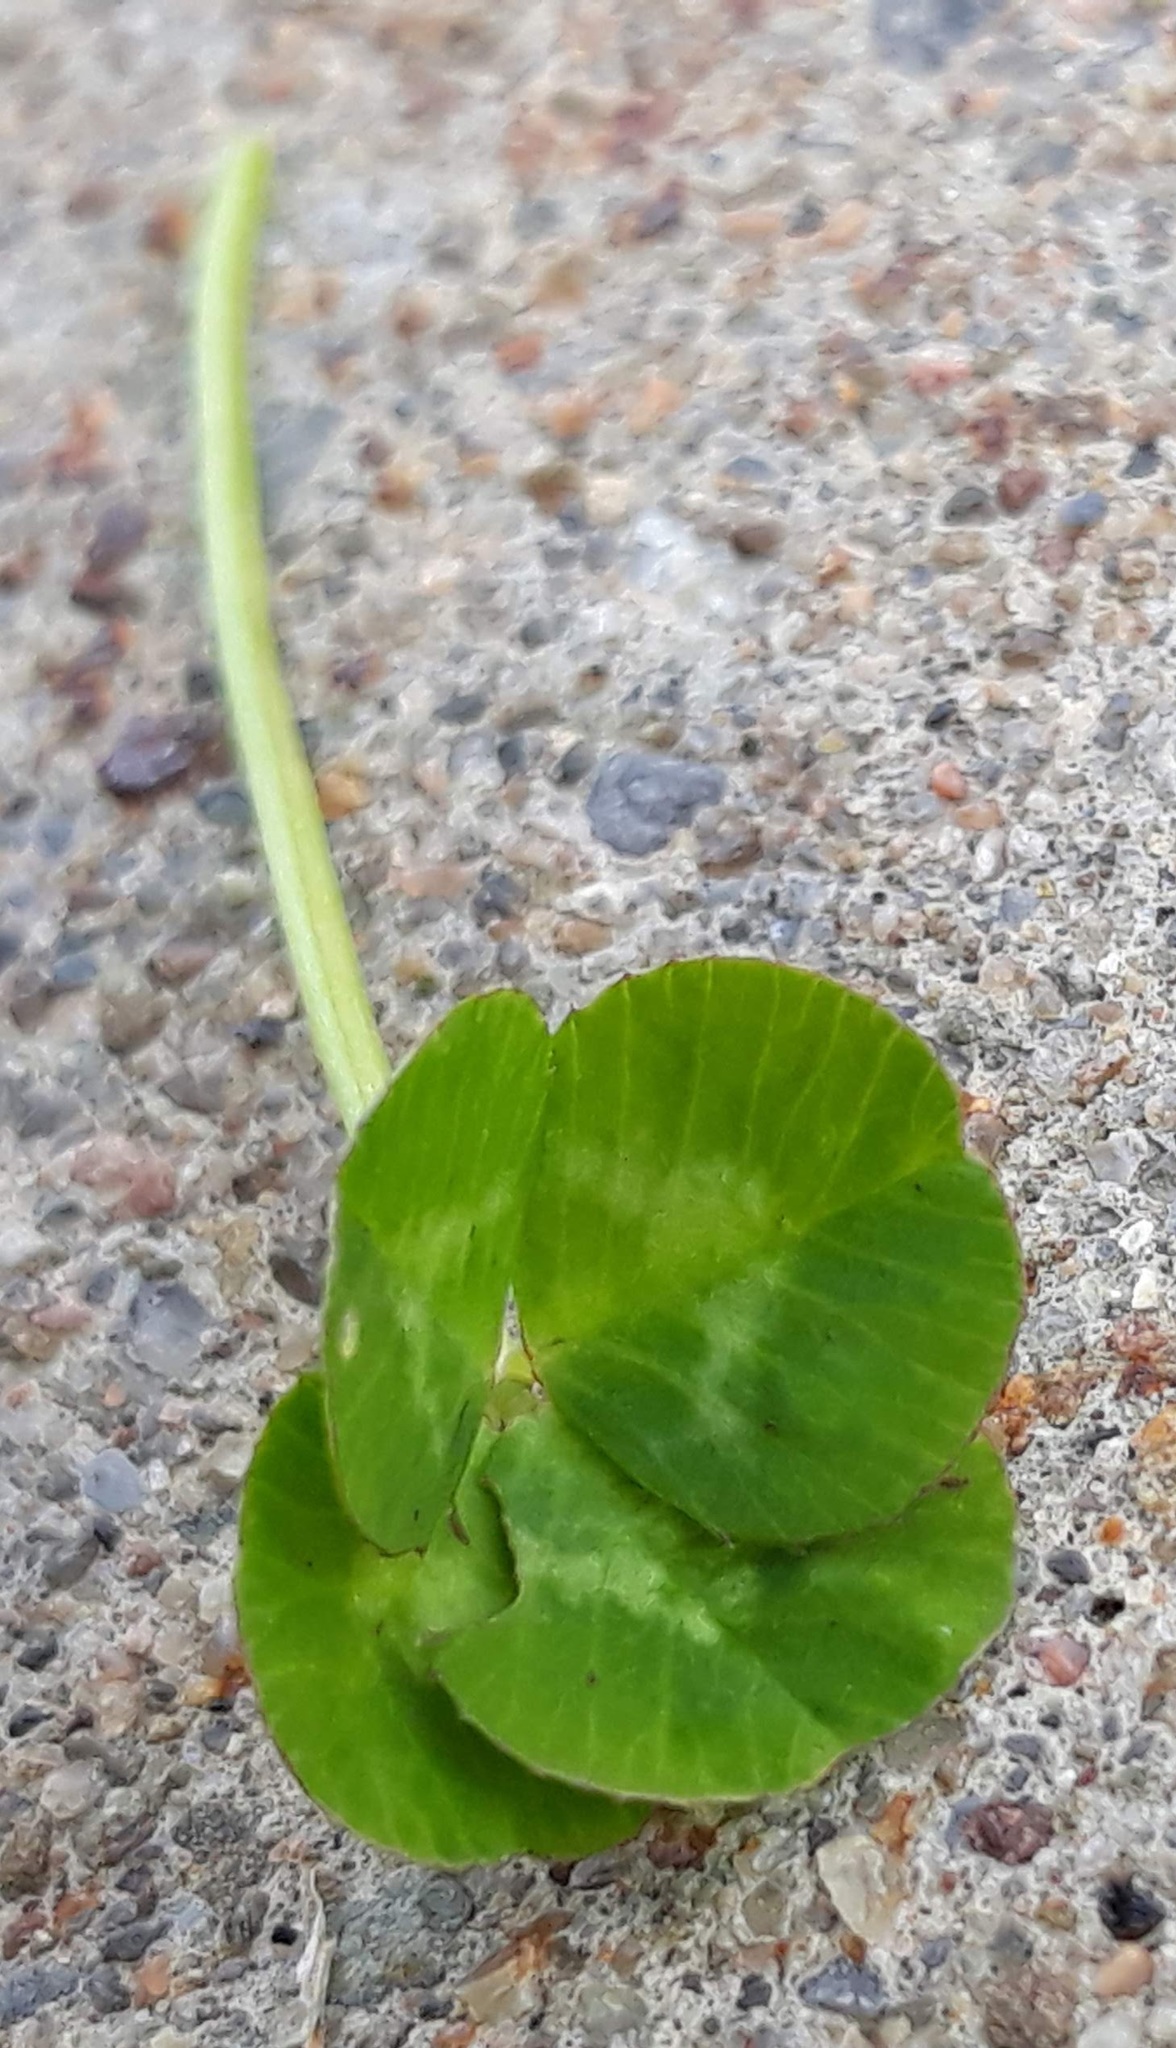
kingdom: Plantae
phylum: Tracheophyta
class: Magnoliopsida
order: Fabales
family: Fabaceae
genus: Trifolium
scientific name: Trifolium repens
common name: White clover
